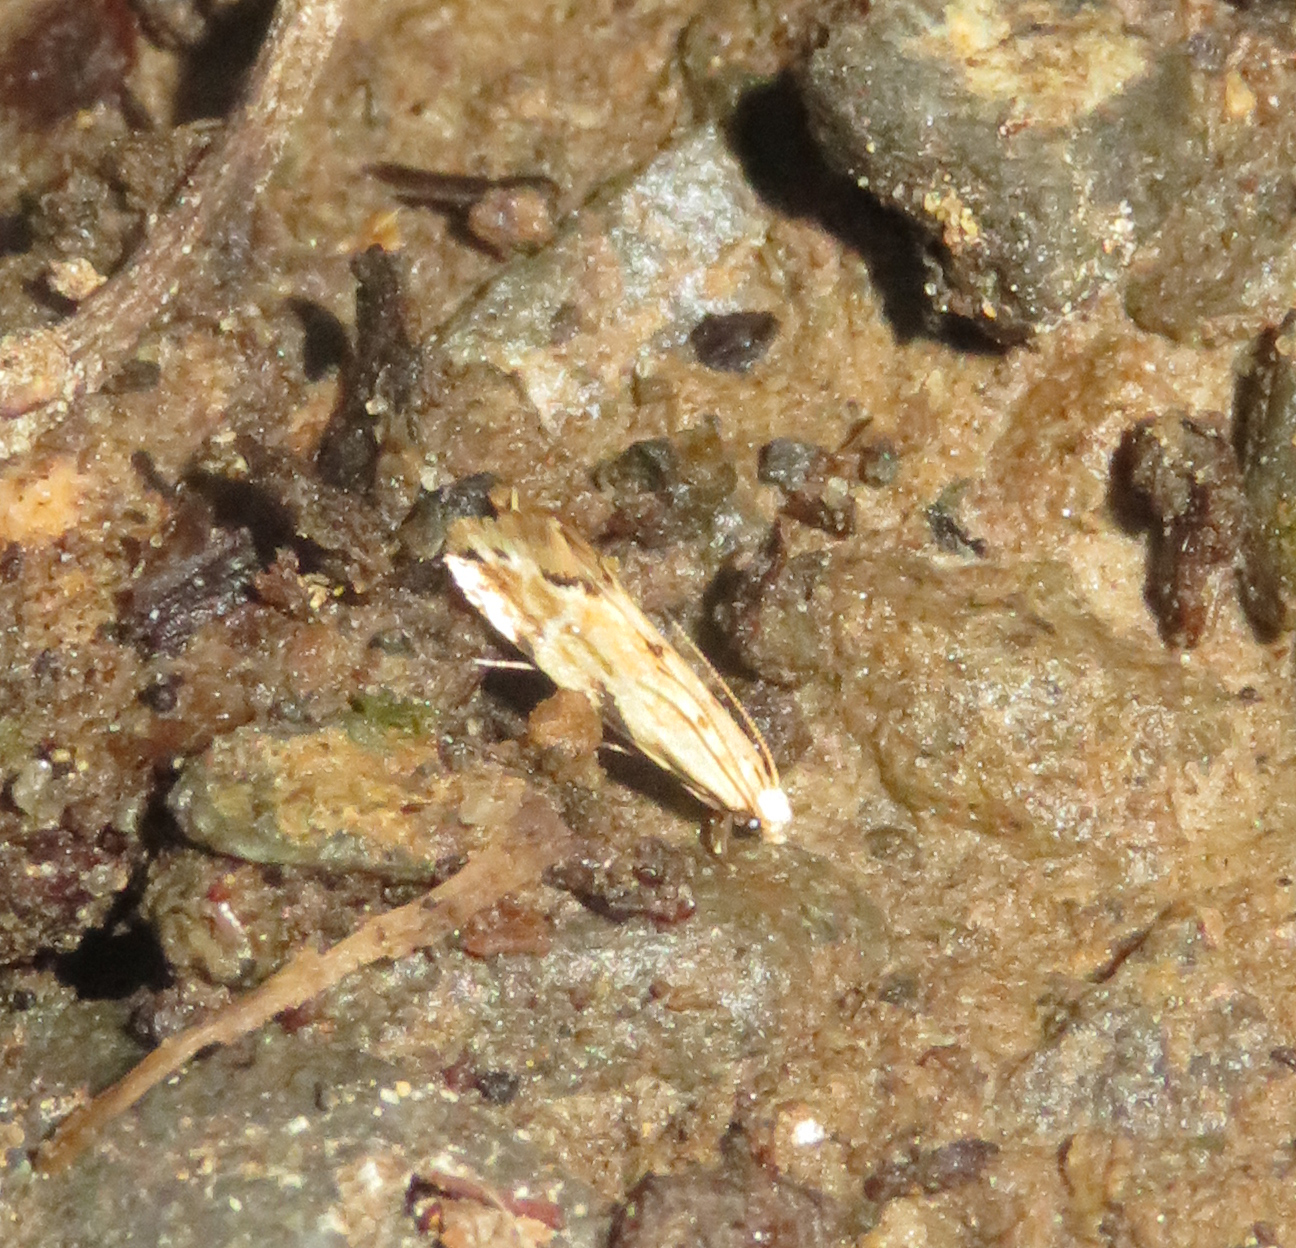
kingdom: Animalia
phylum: Arthropoda
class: Insecta
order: Lepidoptera
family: Dryadaulidae
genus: Dryadaula
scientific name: Dryadaula myrrhina
